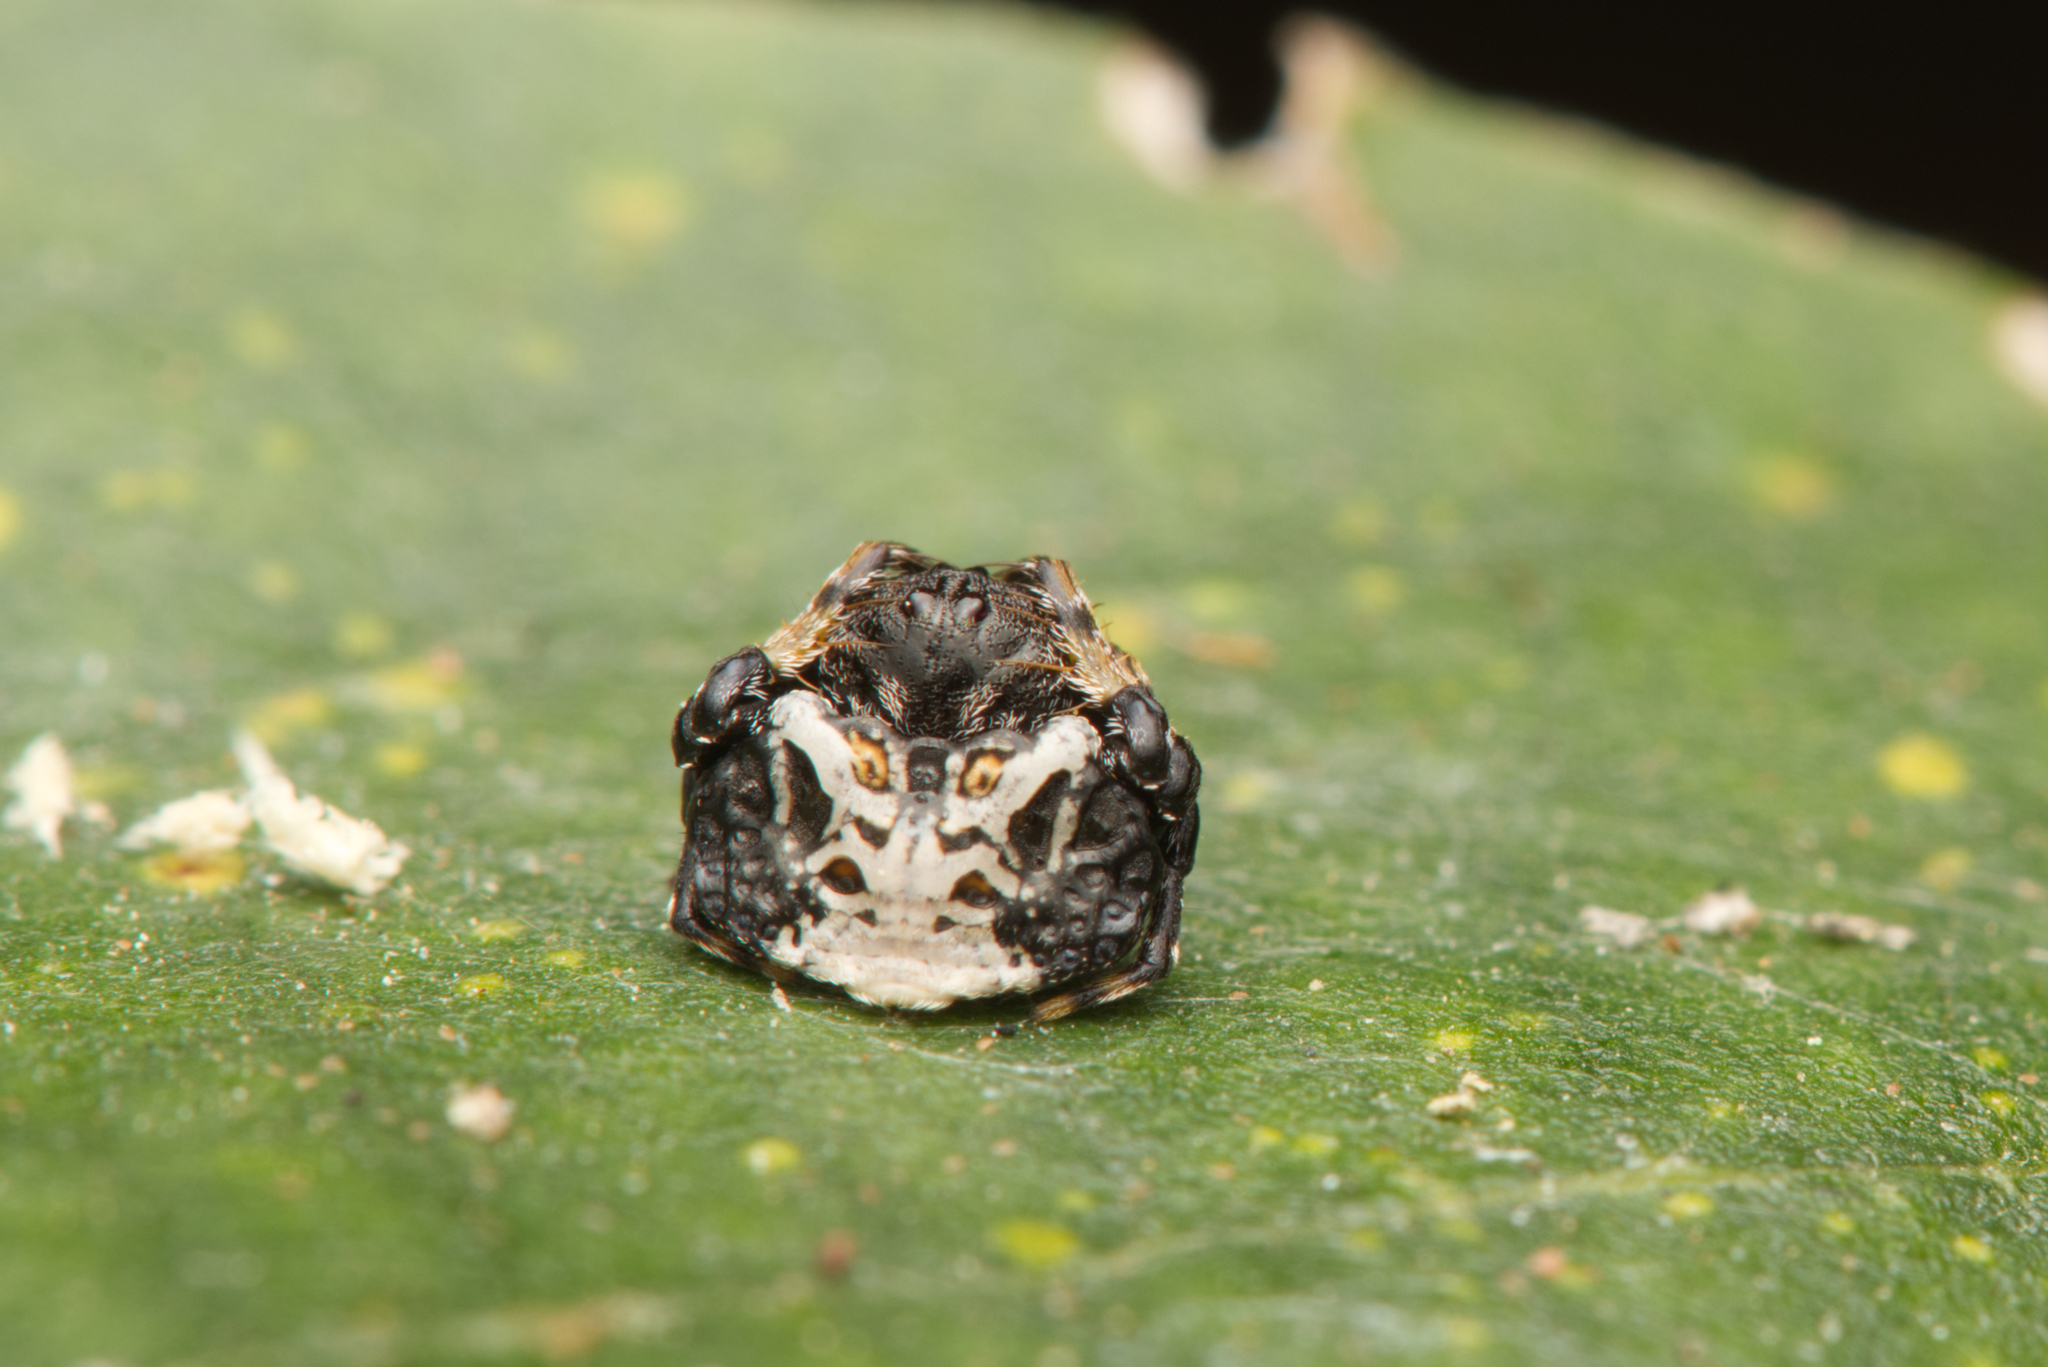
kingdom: Animalia
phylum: Arthropoda
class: Arachnida
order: Araneae
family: Arkyidae
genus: Arkys
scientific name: Arkys curtulus
